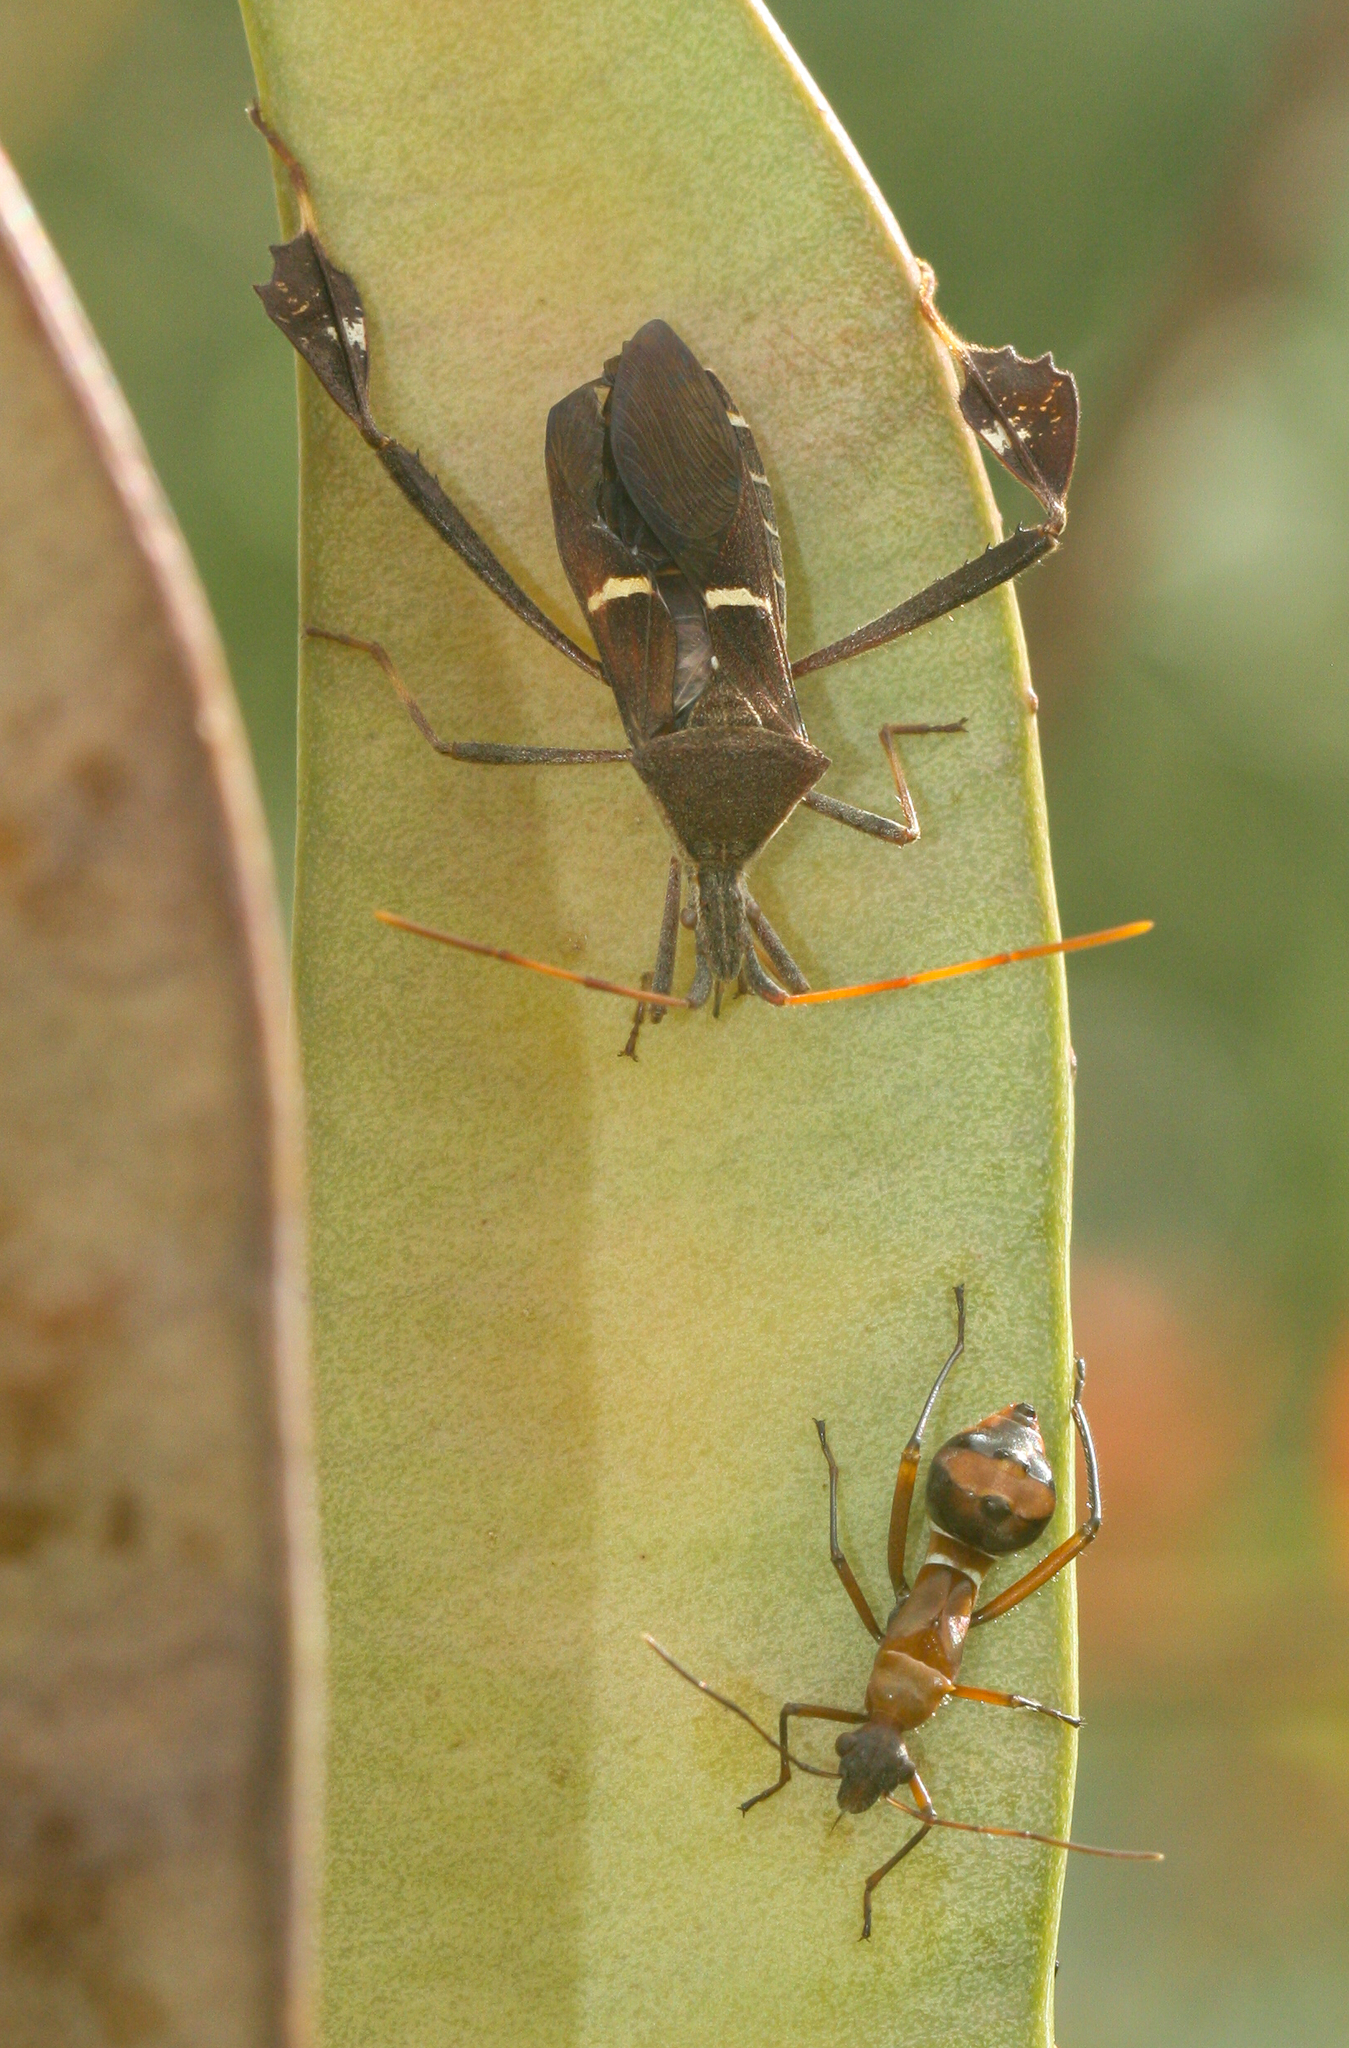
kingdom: Animalia
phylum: Arthropoda
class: Insecta
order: Hemiptera
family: Coreidae
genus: Leptoglossus
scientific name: Leptoglossus phyllopus
